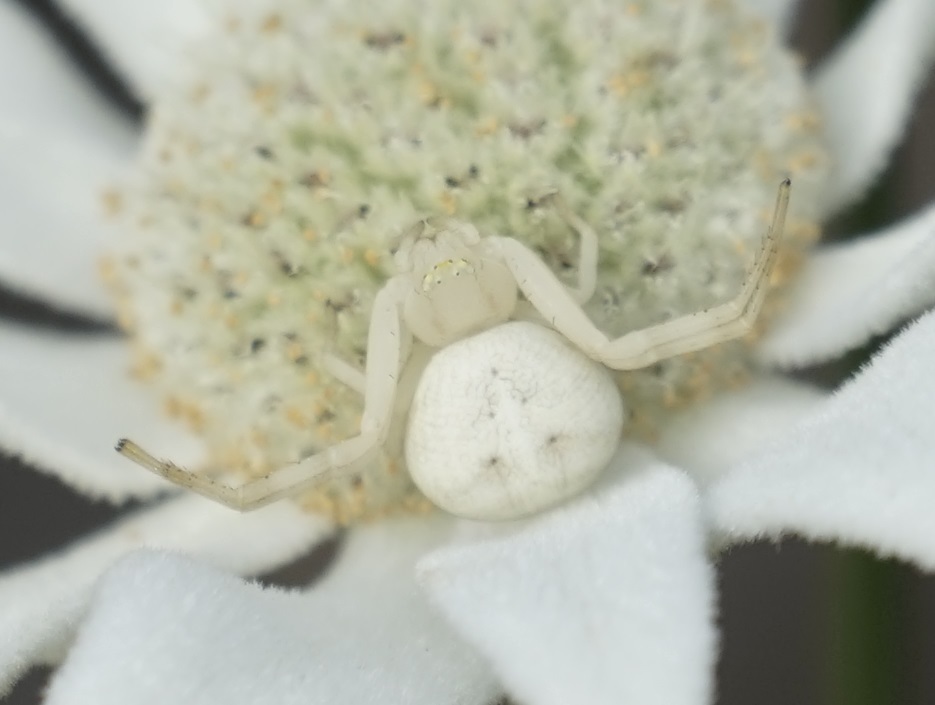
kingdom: Animalia
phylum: Arthropoda
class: Arachnida
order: Araneae
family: Thomisidae
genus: Zygometis
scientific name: Zygometis xanthogaster
